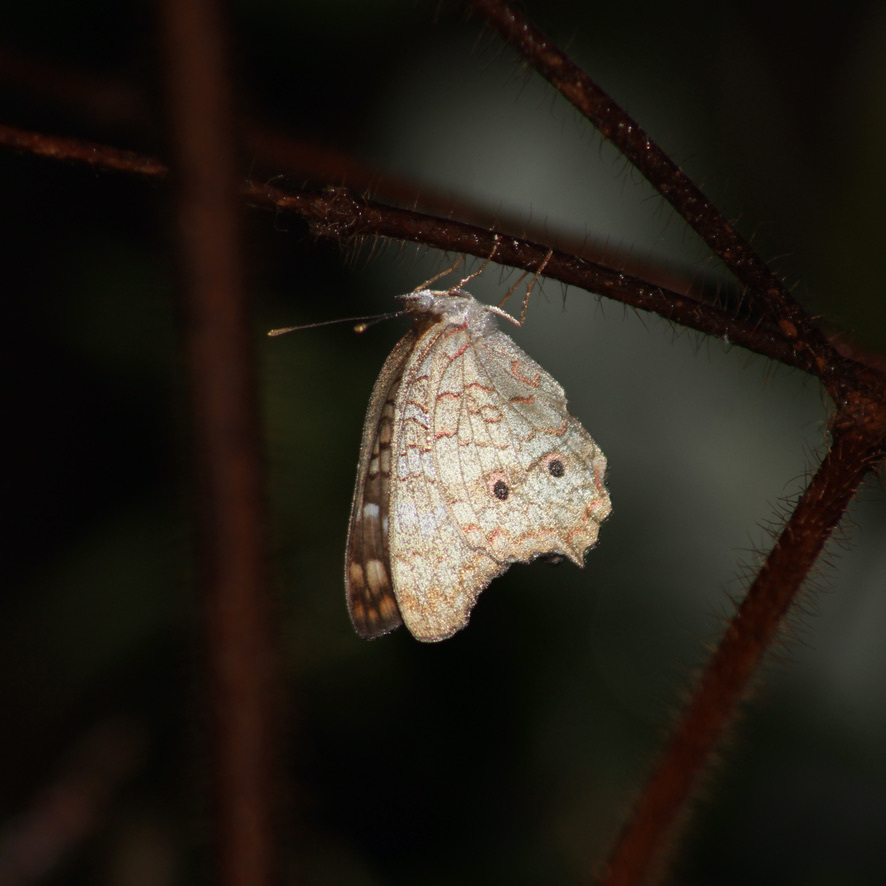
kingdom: Animalia
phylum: Arthropoda
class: Insecta
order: Lepidoptera
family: Nymphalidae
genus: Anartia
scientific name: Anartia jatrophae
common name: White peacock
